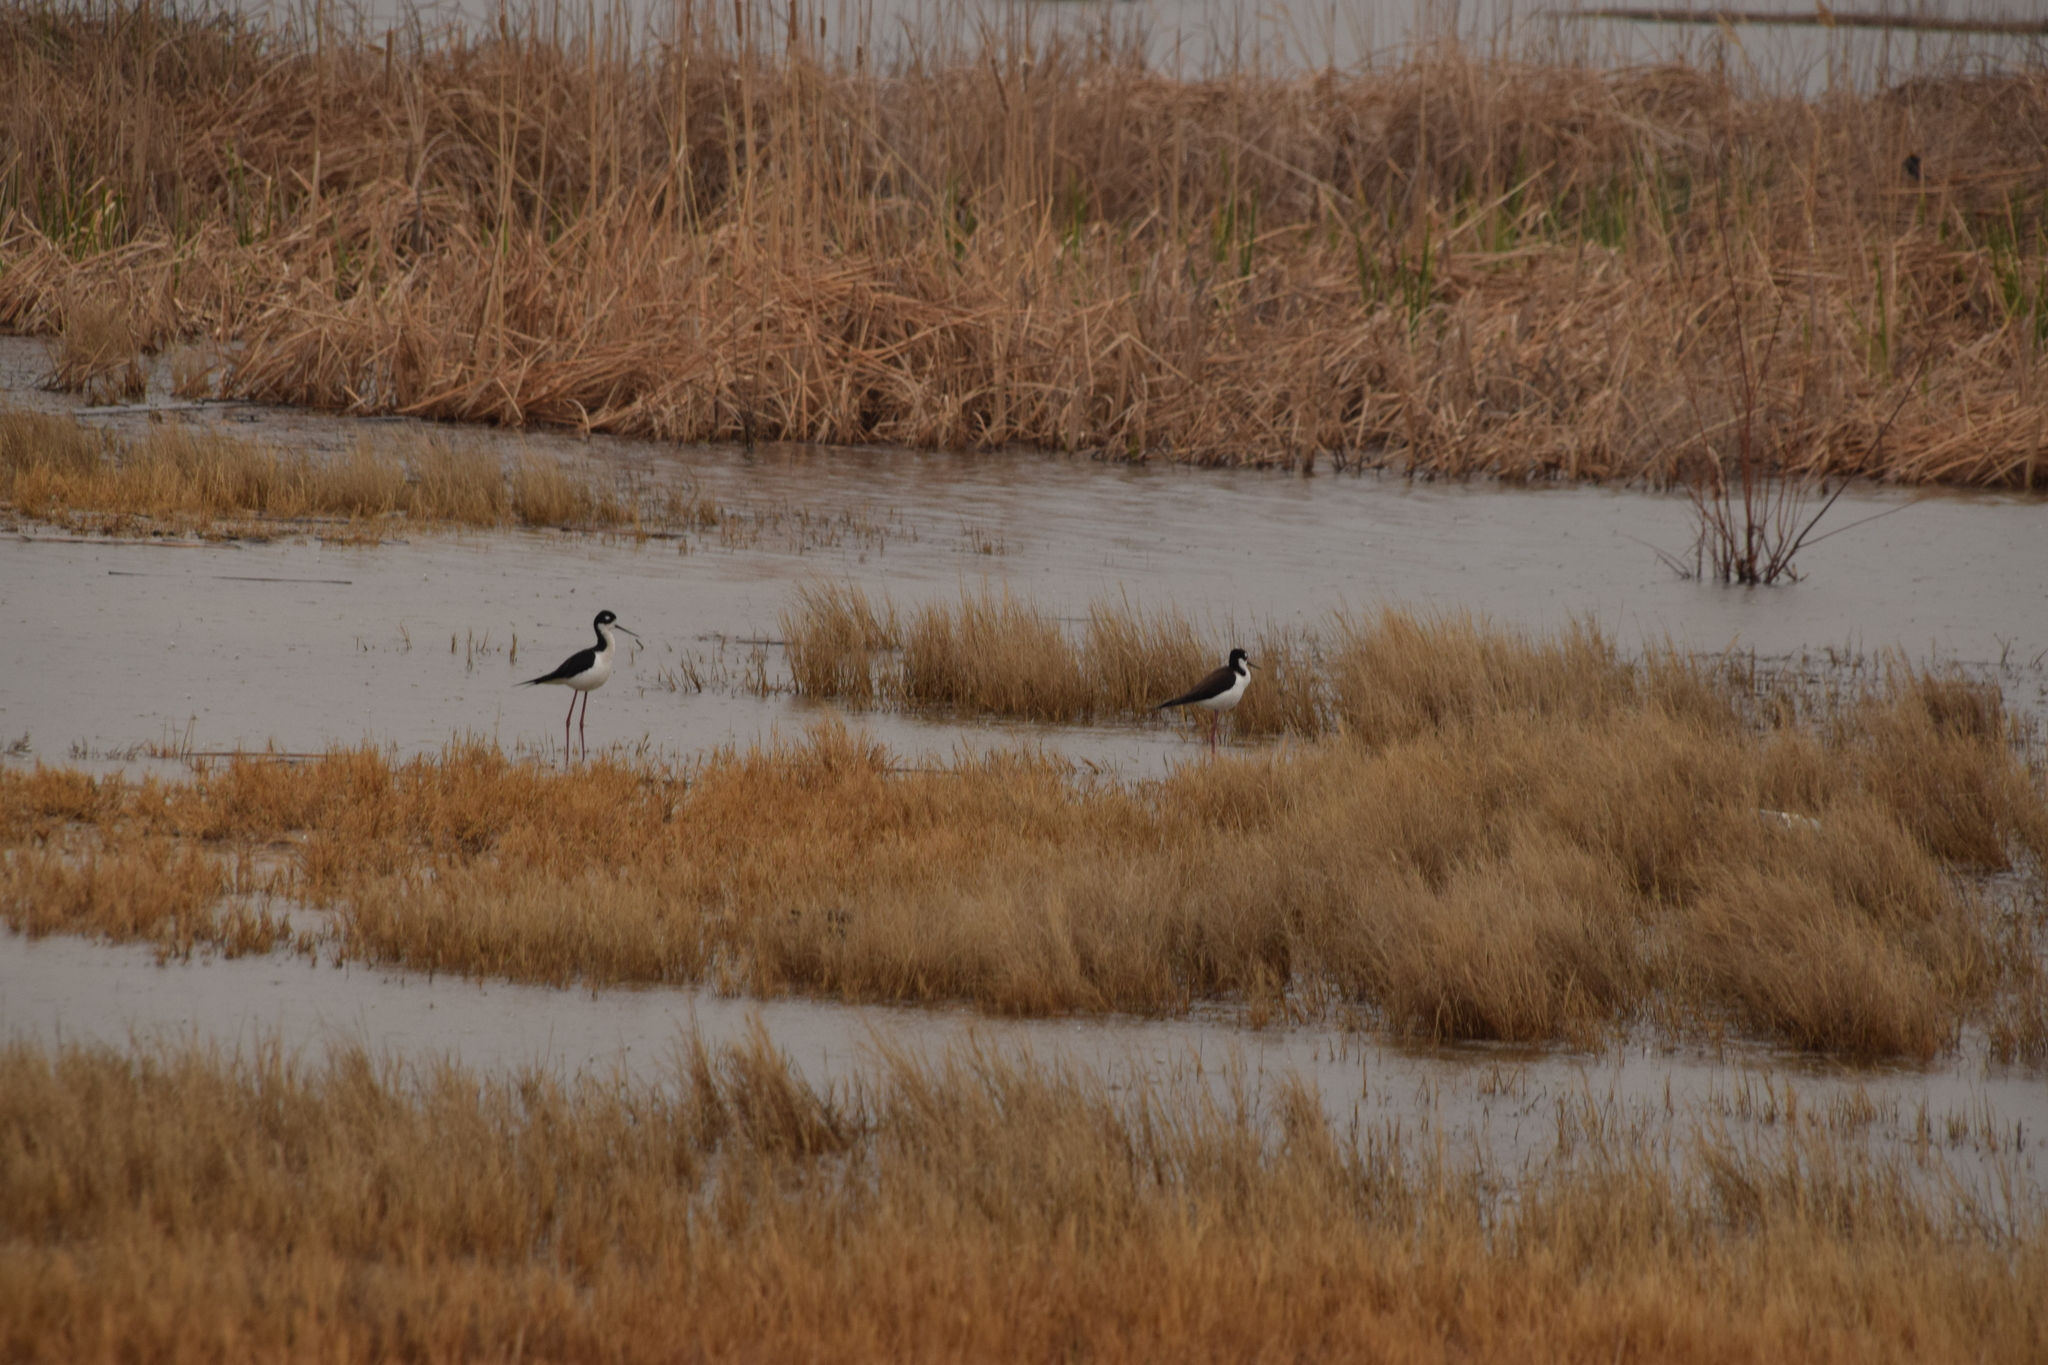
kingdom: Animalia
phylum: Chordata
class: Aves
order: Charadriiformes
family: Recurvirostridae
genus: Himantopus
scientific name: Himantopus mexicanus
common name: Black-necked stilt
